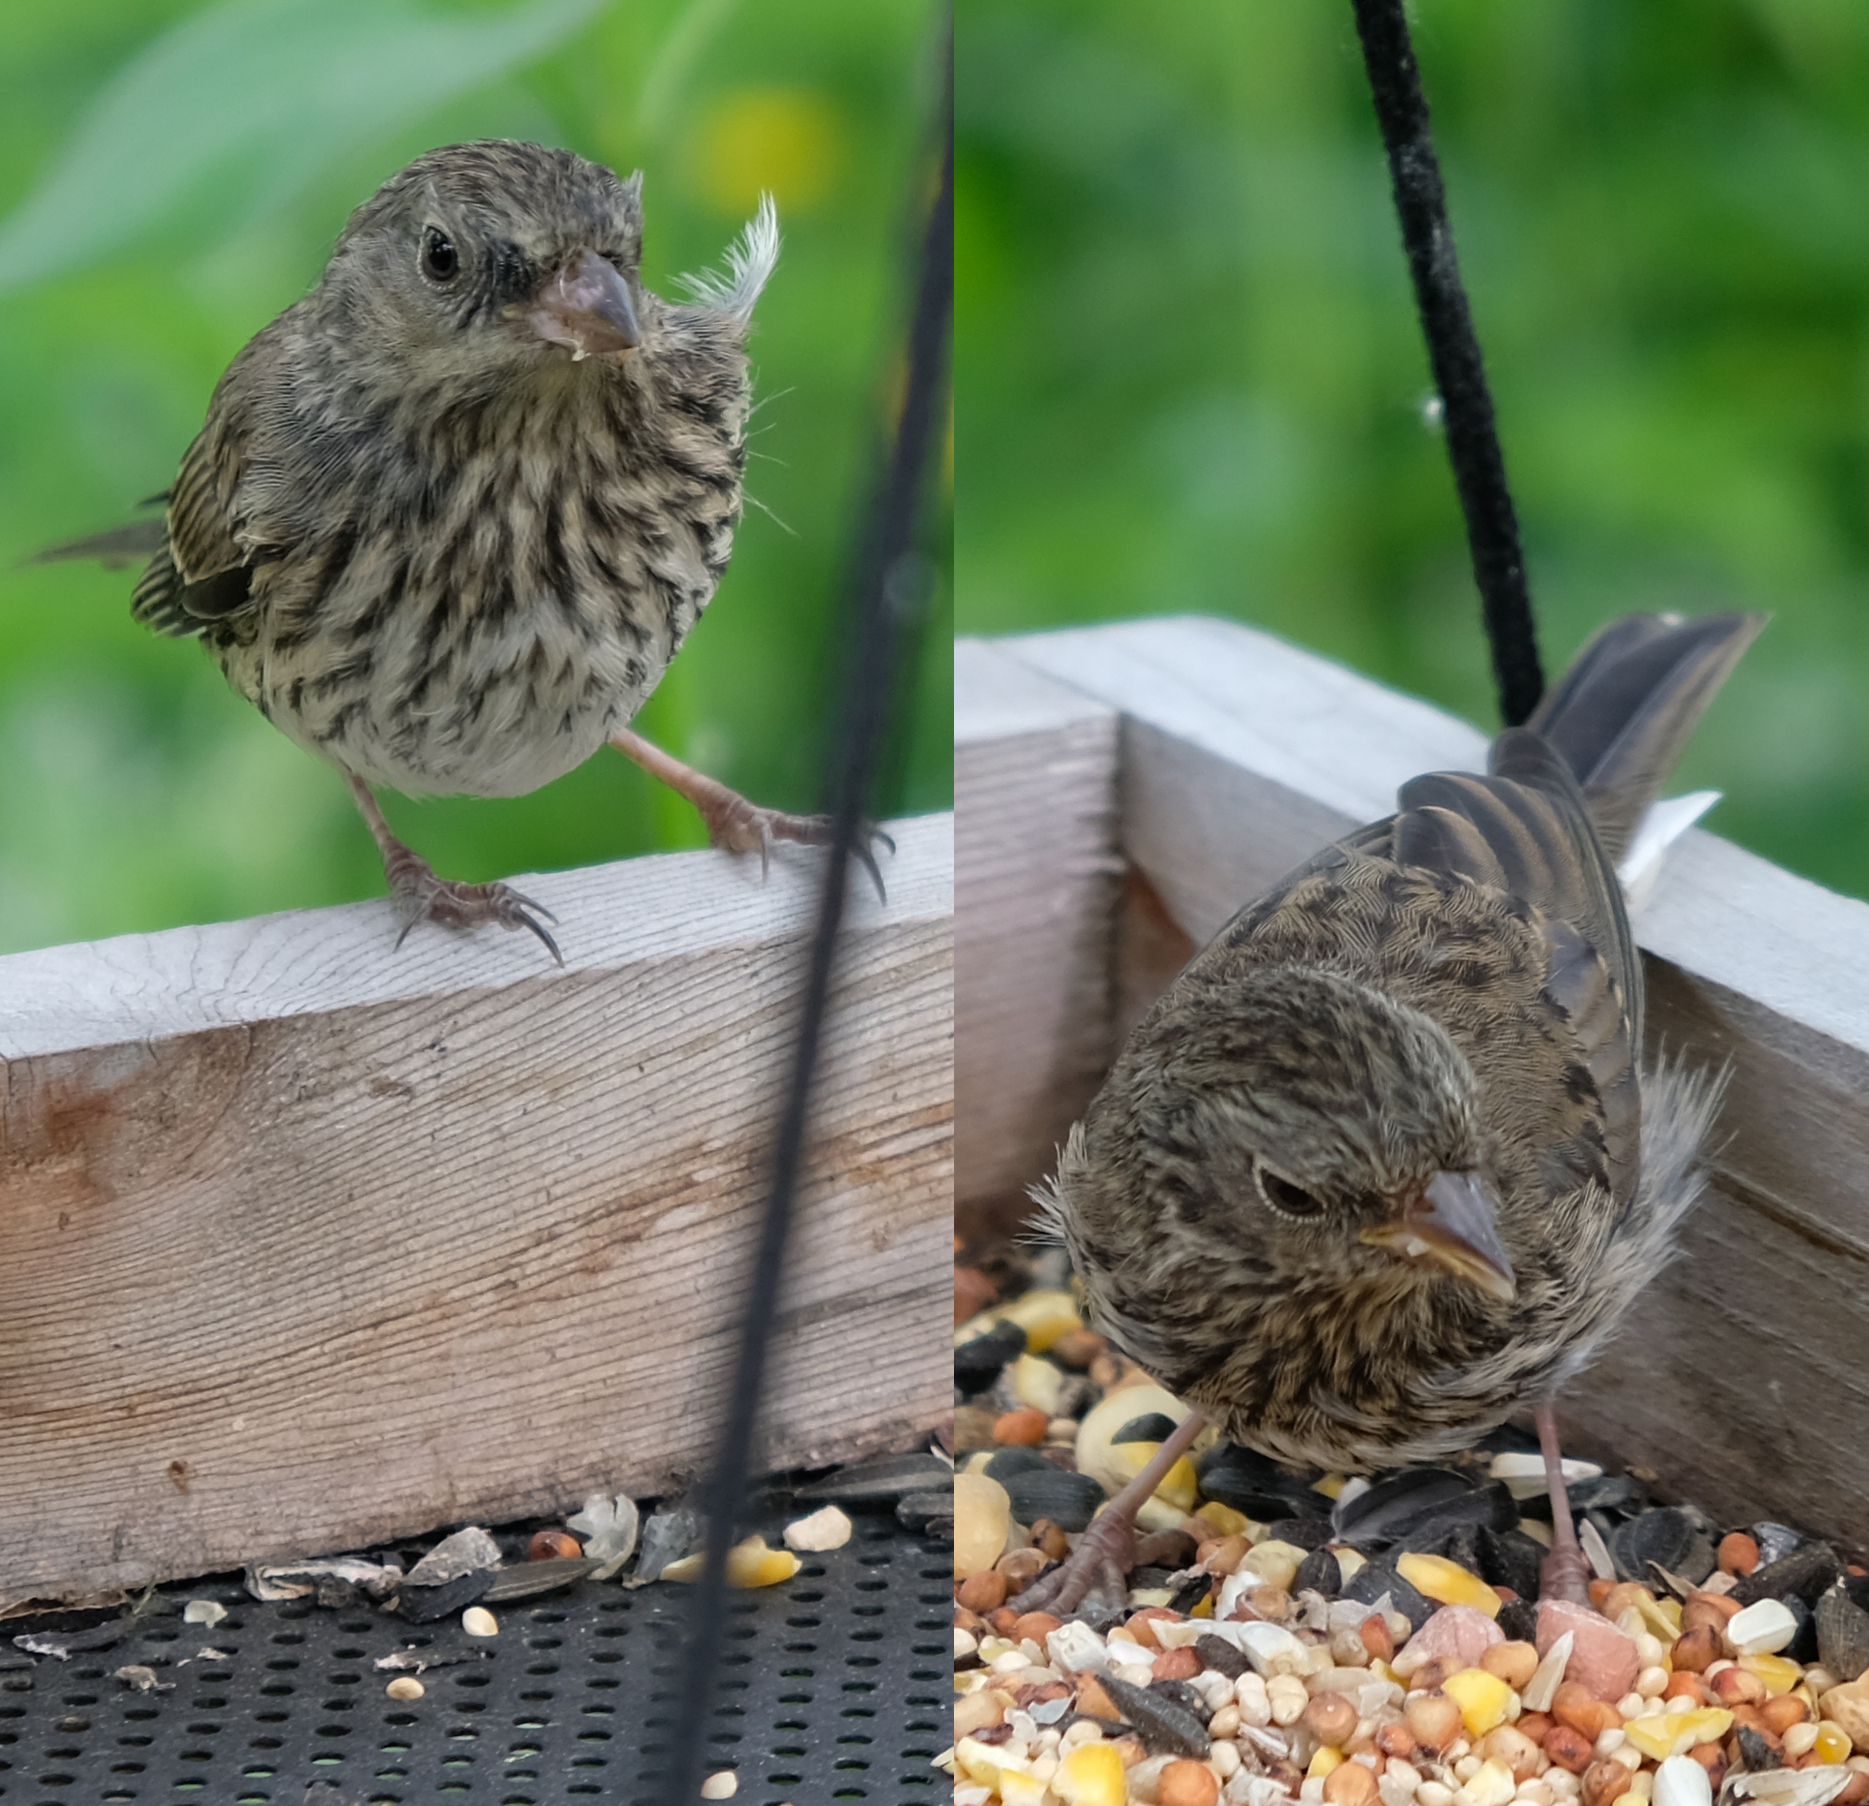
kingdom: Animalia
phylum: Chordata
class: Aves
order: Passeriformes
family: Passerellidae
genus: Junco
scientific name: Junco hyemalis
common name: Dark-eyed junco
